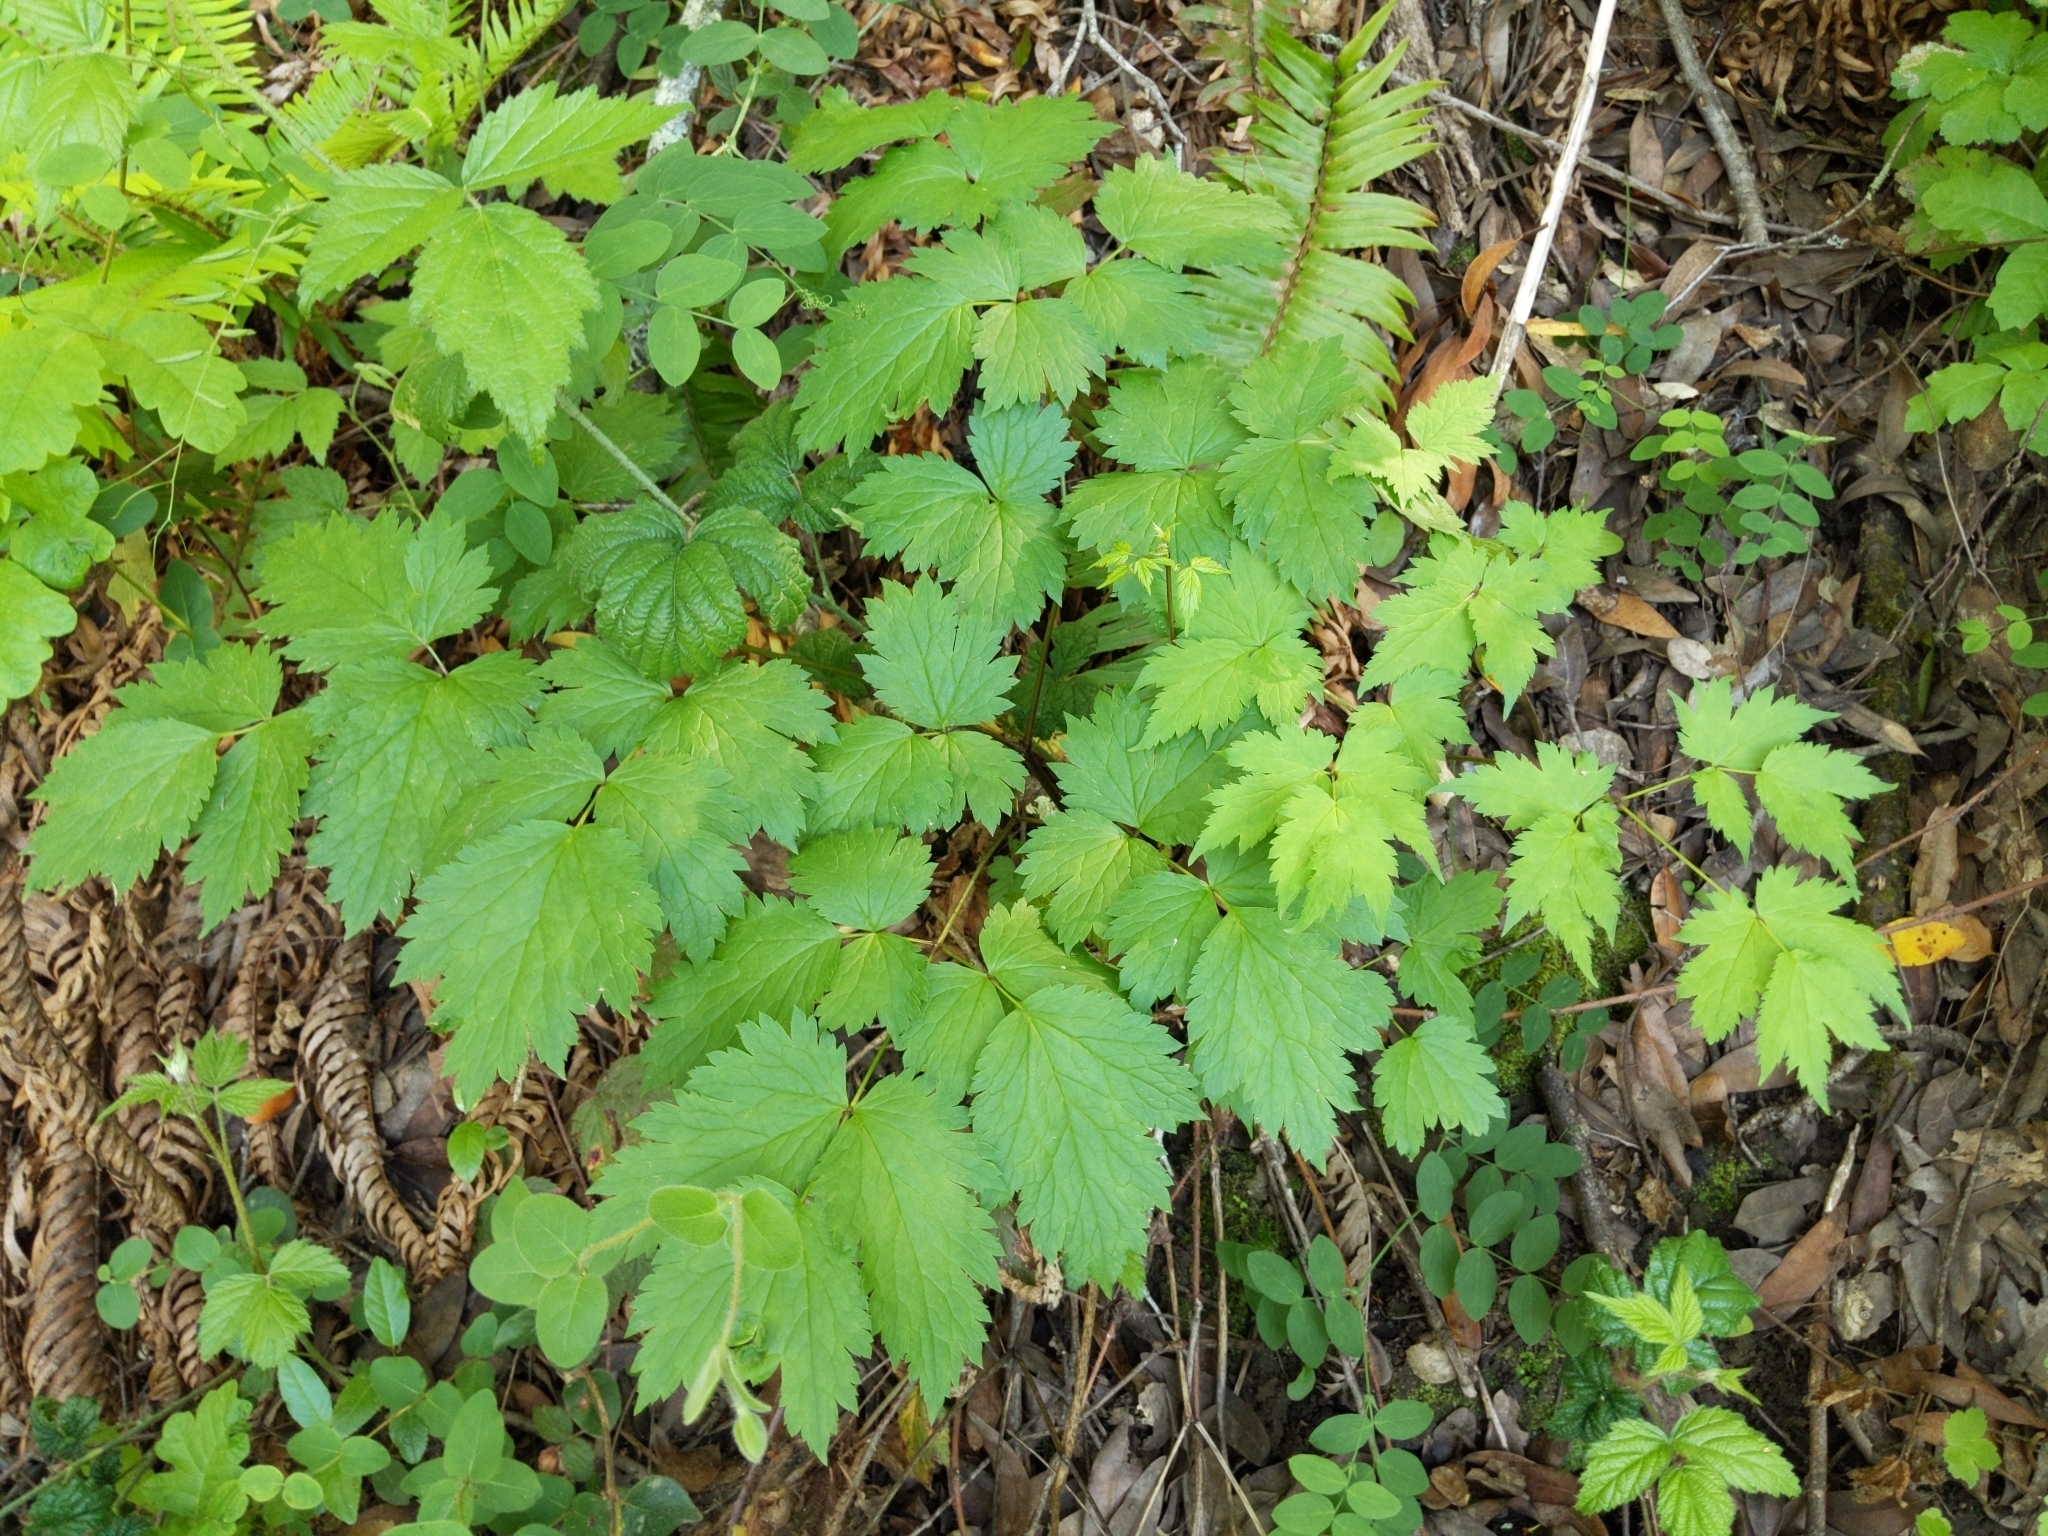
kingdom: Plantae
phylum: Tracheophyta
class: Magnoliopsida
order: Ranunculales
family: Ranunculaceae
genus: Actaea
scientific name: Actaea rubra
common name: Red baneberry
